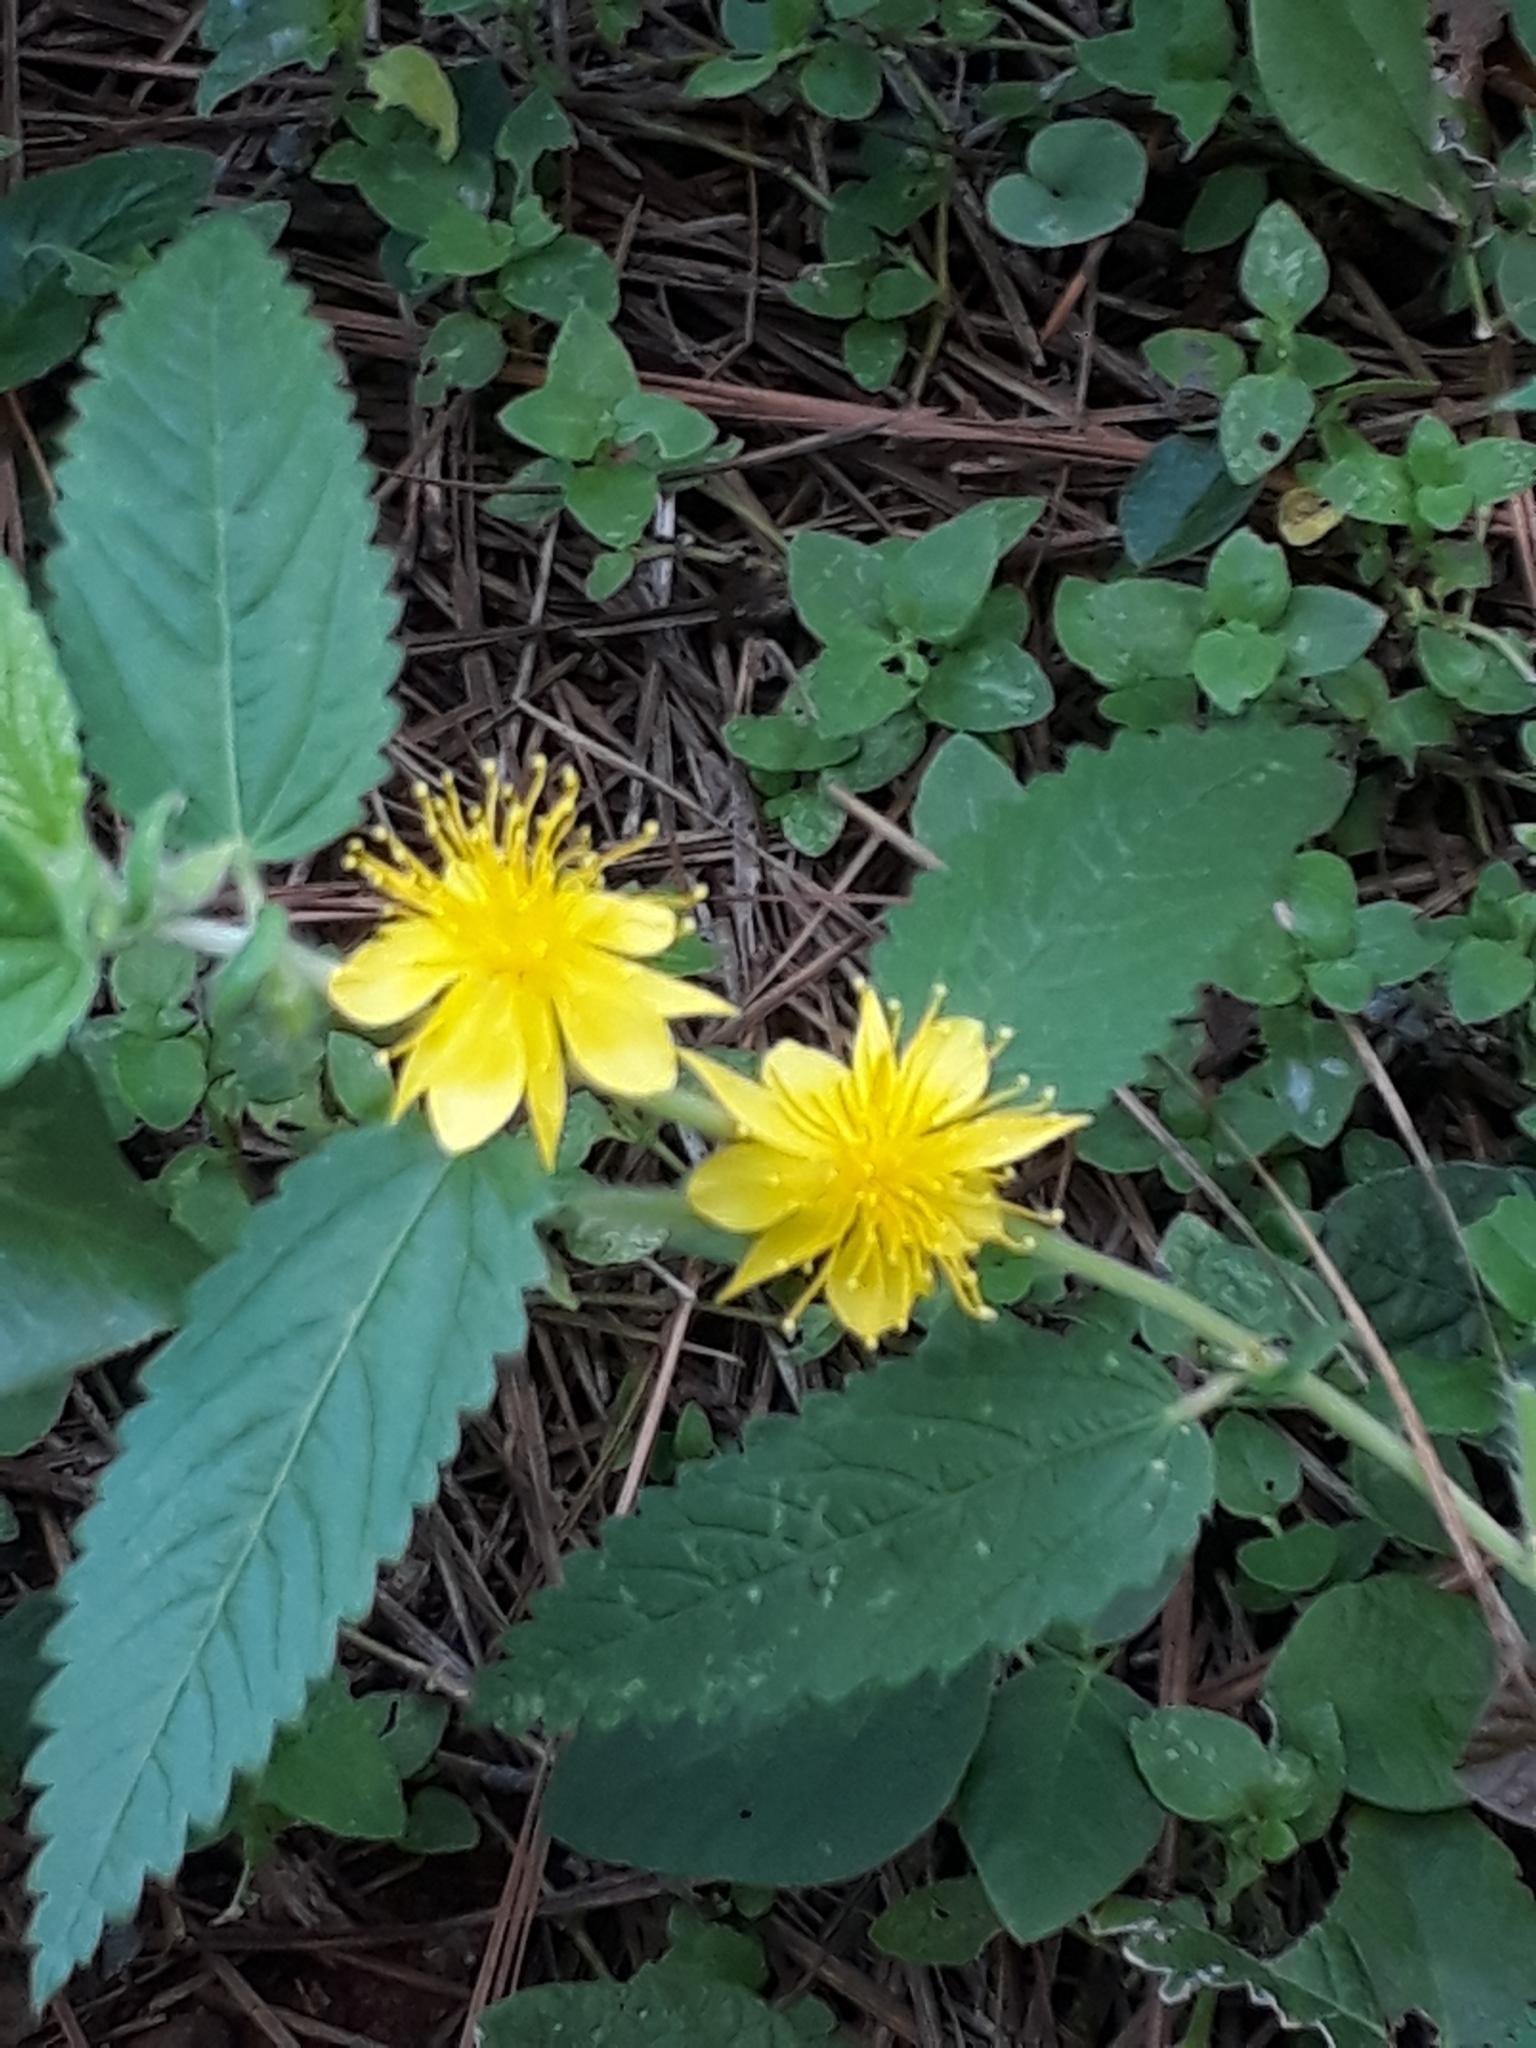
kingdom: Plantae
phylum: Tracheophyta
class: Magnoliopsida
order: Malvales
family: Malvaceae
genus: Corchorus
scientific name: Corchorus argutus
